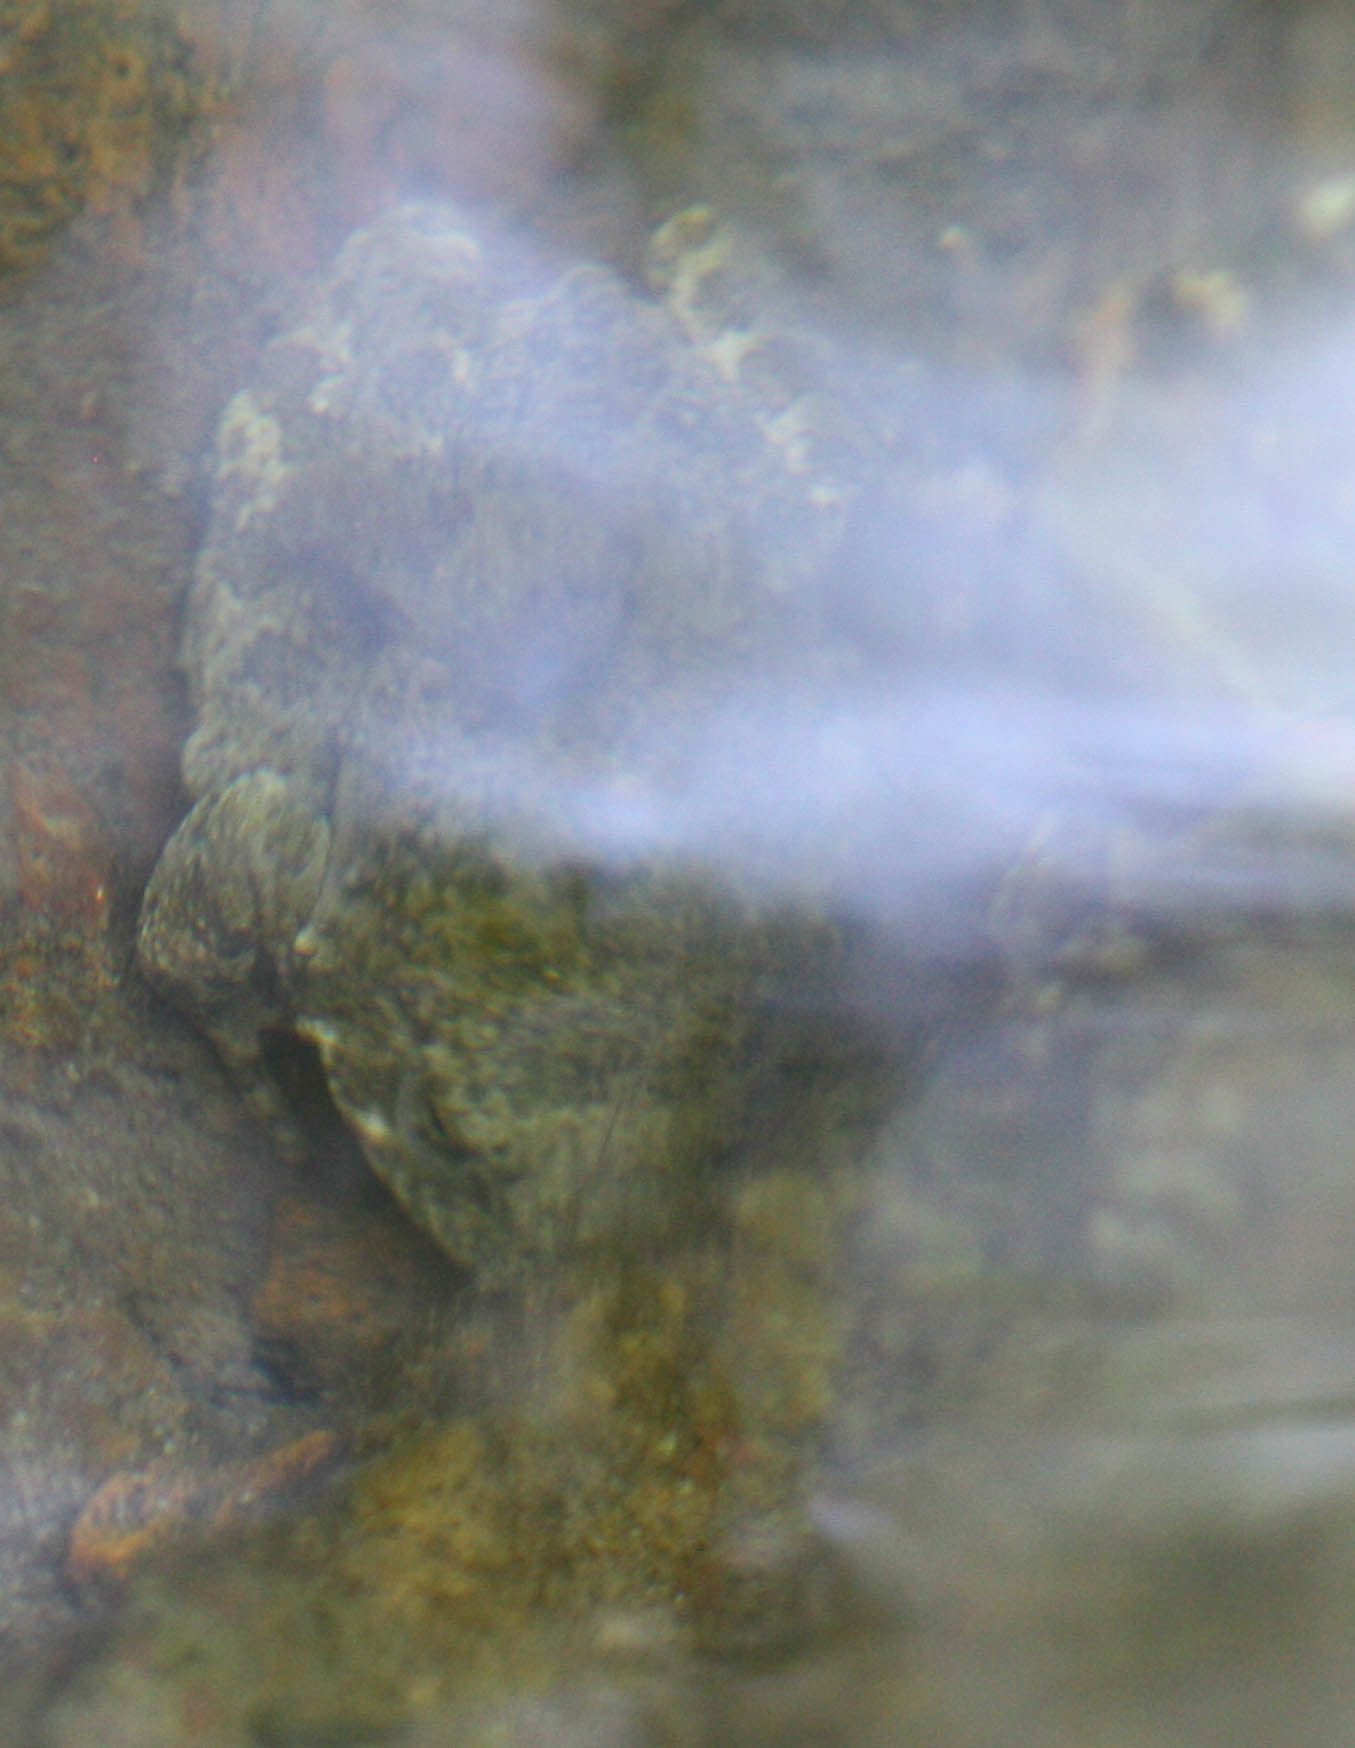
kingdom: Animalia
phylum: Chordata
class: Amphibia
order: Anura
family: Ranidae
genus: Rana
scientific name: Rana boylii
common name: Foothill yellow-legged frog
